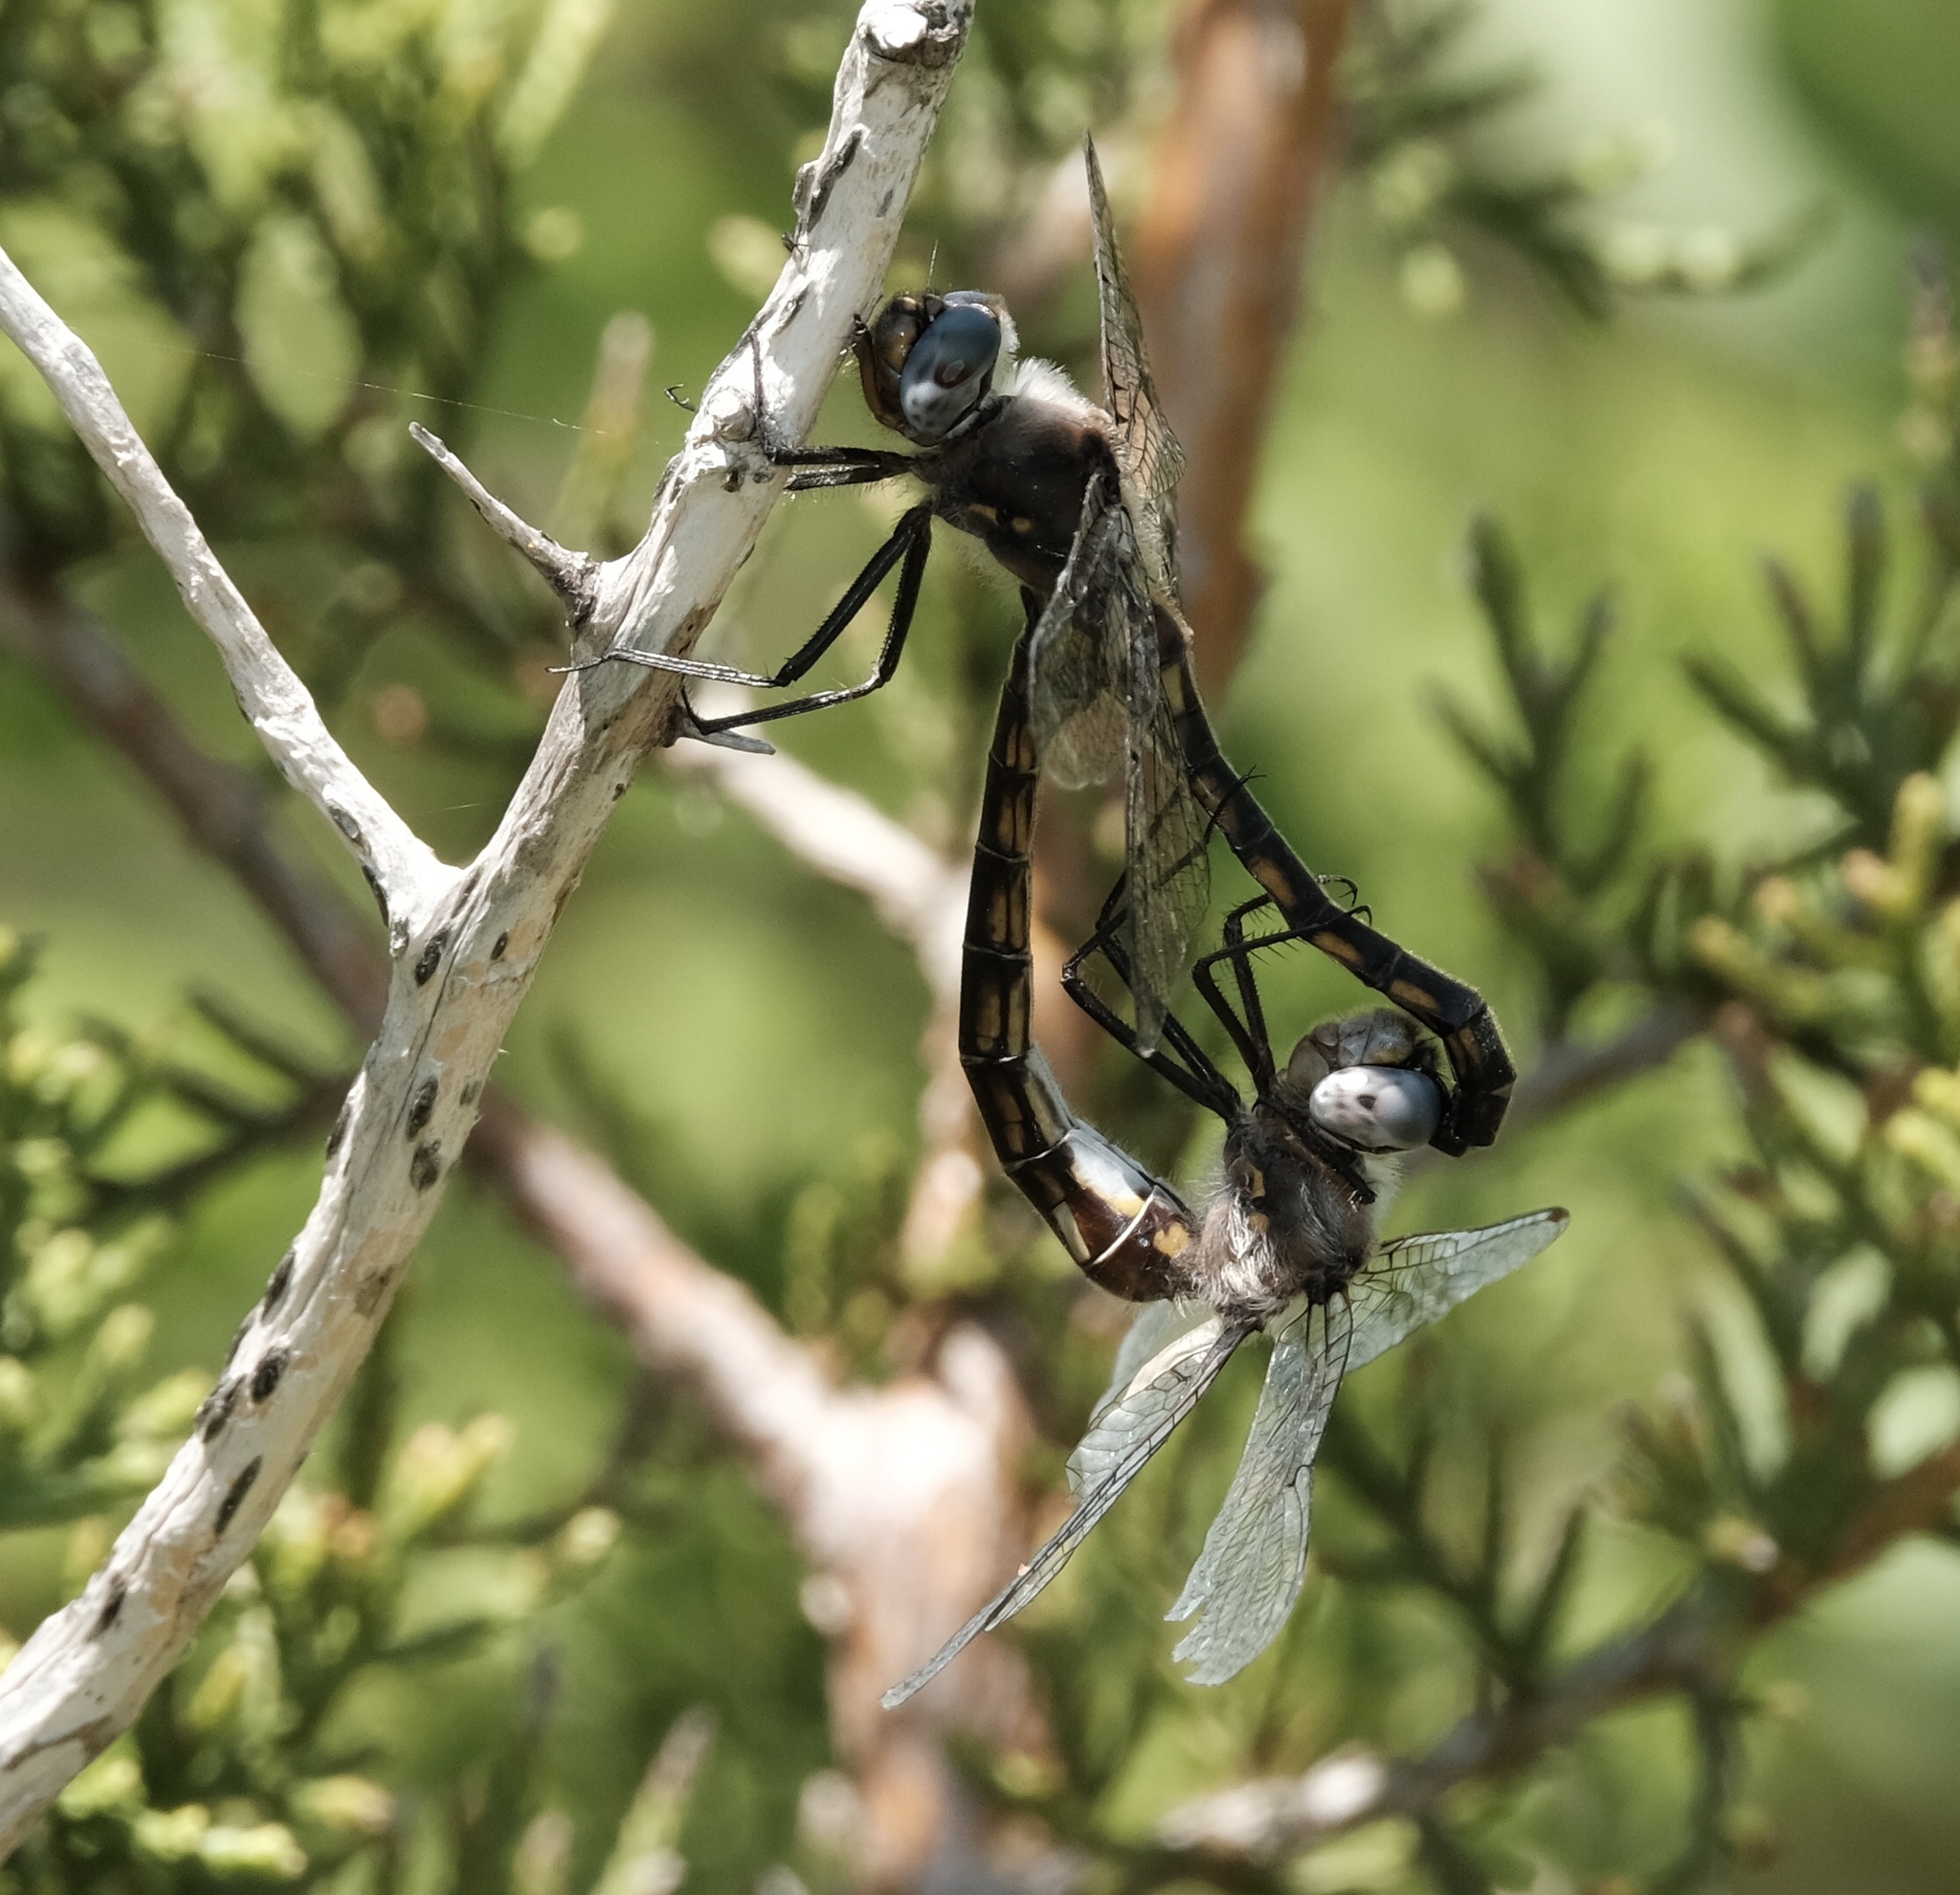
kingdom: Animalia
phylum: Arthropoda
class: Insecta
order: Odonata
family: Corduliidae
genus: Epitheca
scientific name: Epitheca petechialis
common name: Dot-winged baskettail
